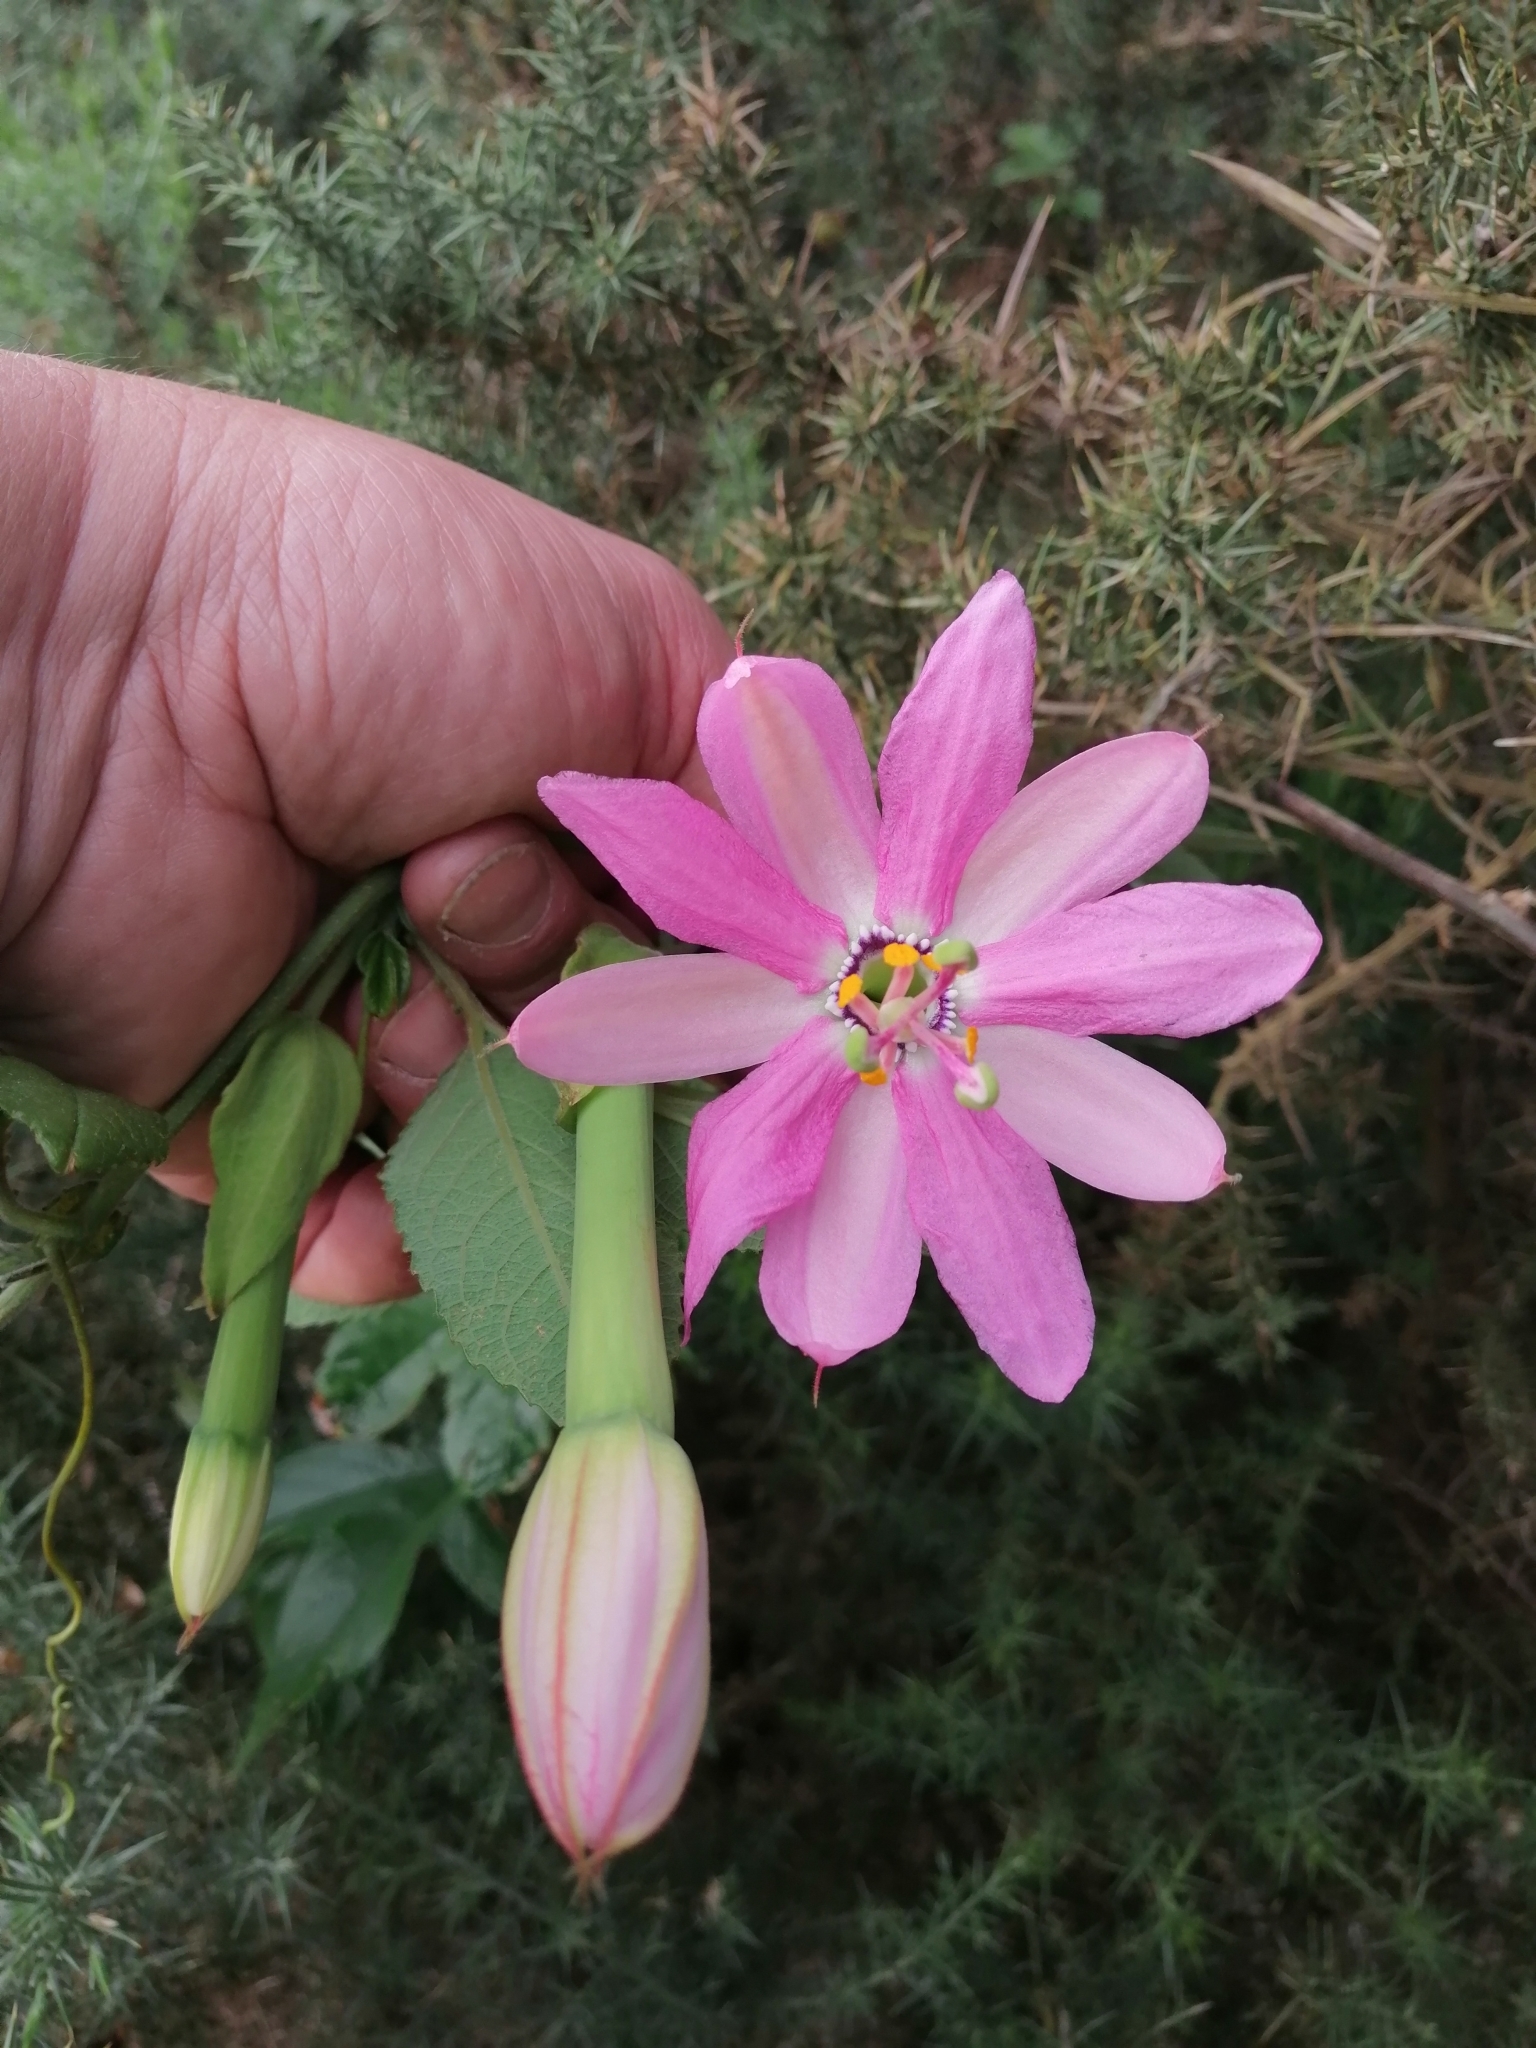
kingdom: Plantae
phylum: Tracheophyta
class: Magnoliopsida
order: Malpighiales
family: Passifloraceae
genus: Passiflora
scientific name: Passiflora tripartita
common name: Banana poka
